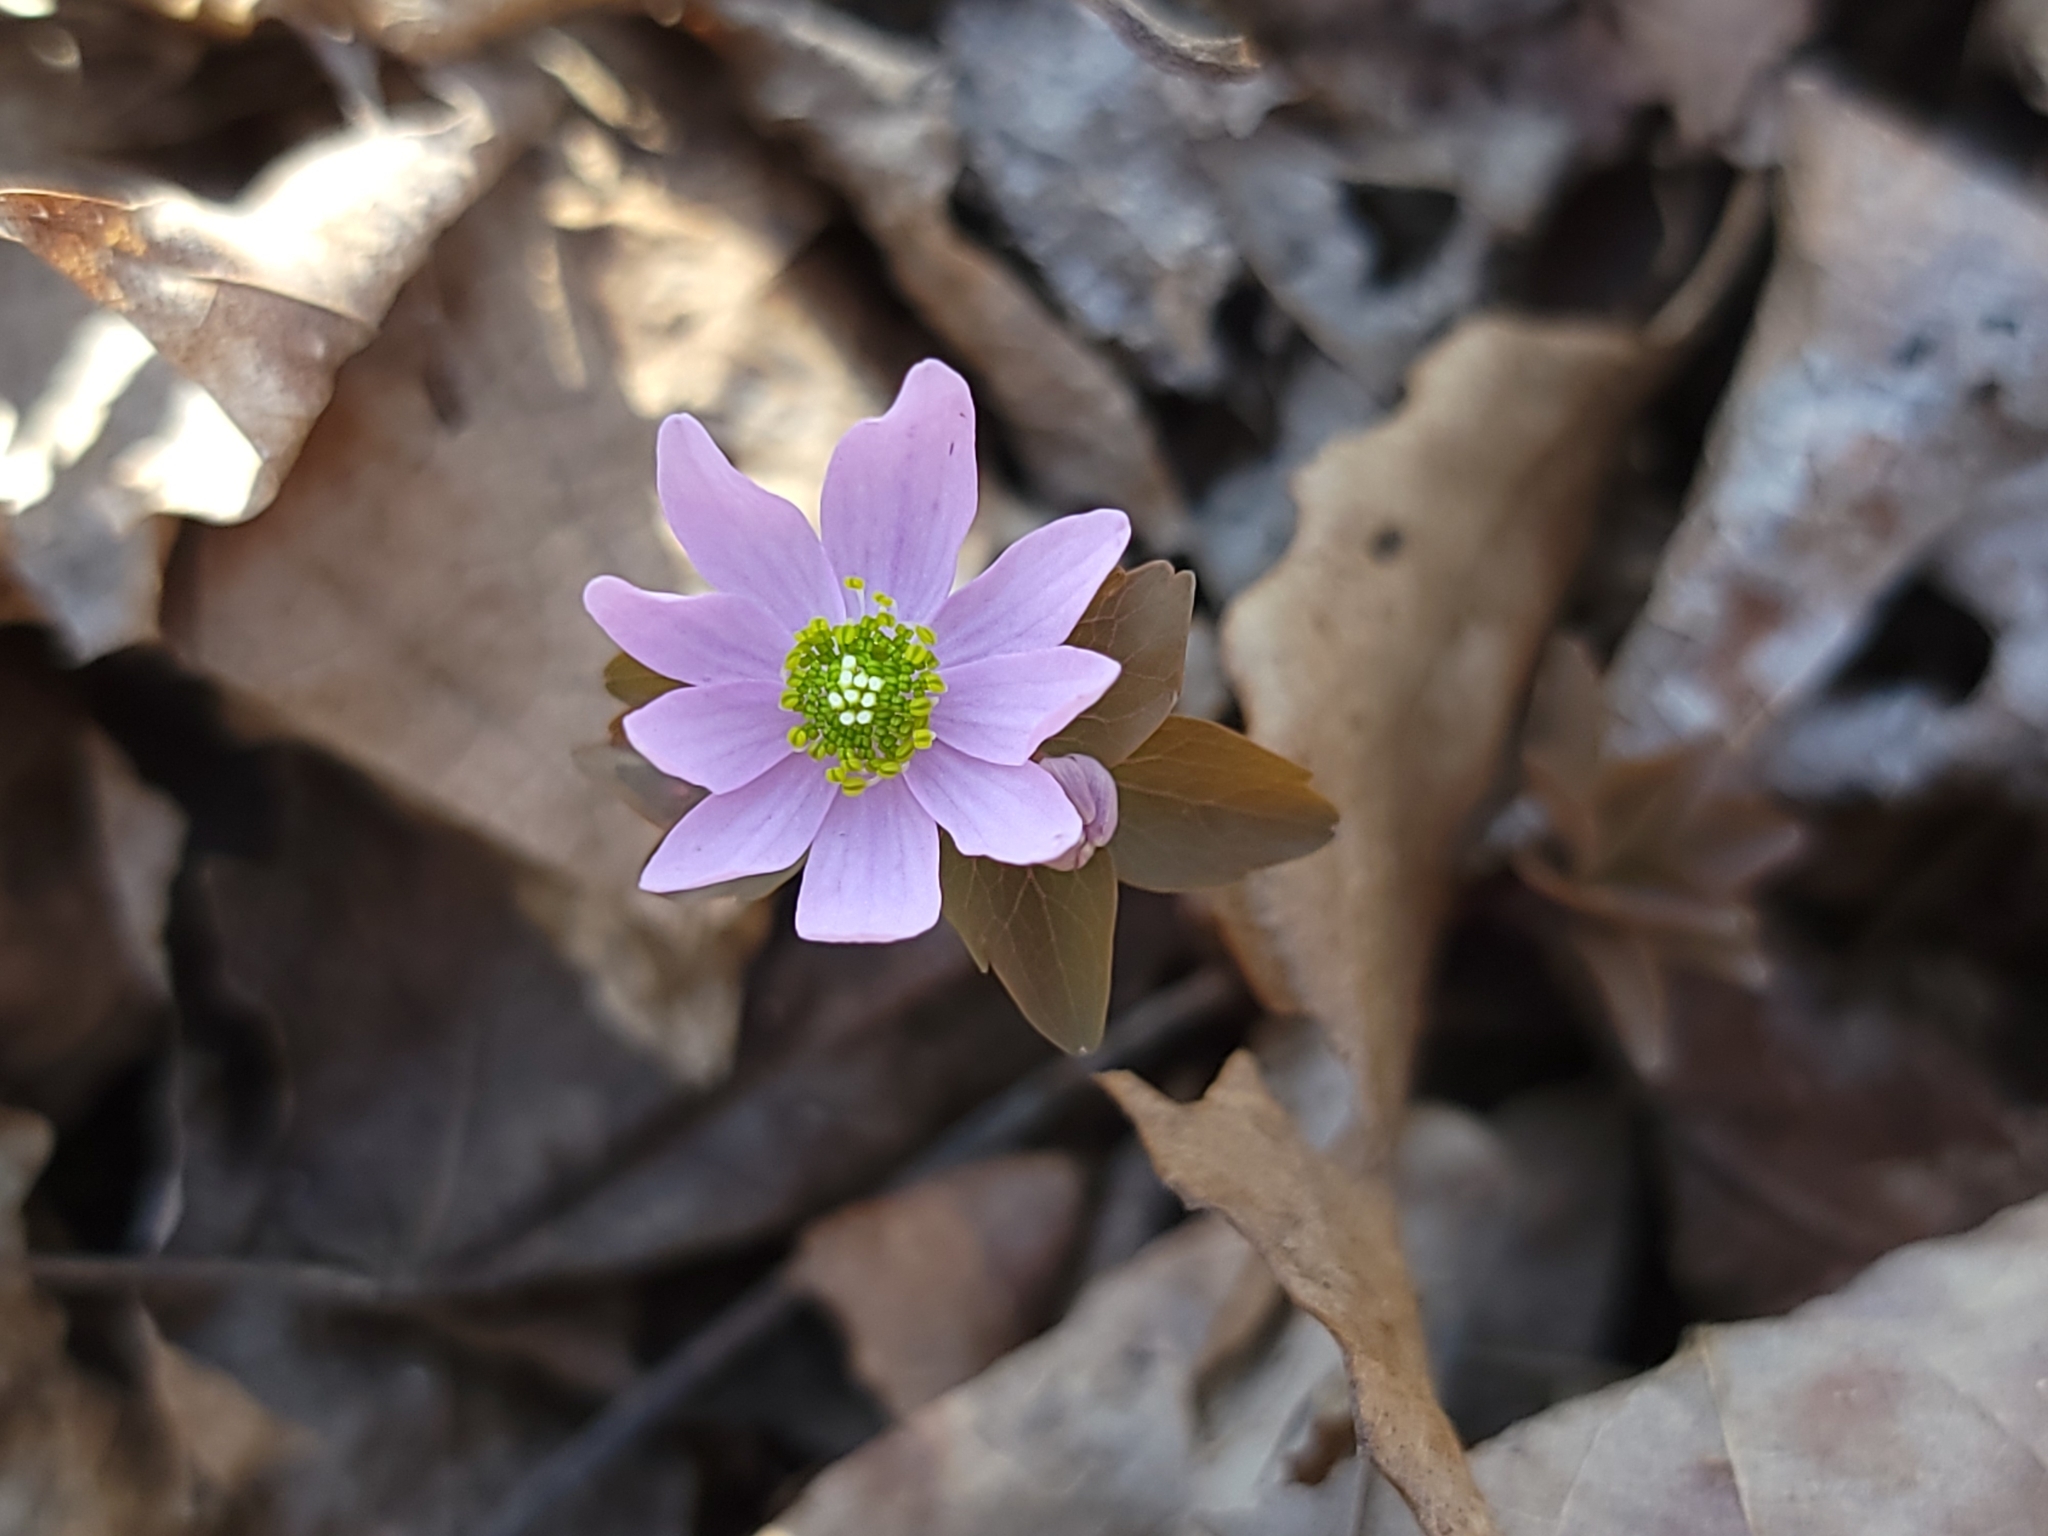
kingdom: Plantae
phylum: Tracheophyta
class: Magnoliopsida
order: Ranunculales
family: Ranunculaceae
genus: Thalictrum
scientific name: Thalictrum thalictroides
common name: Rue-anemone
